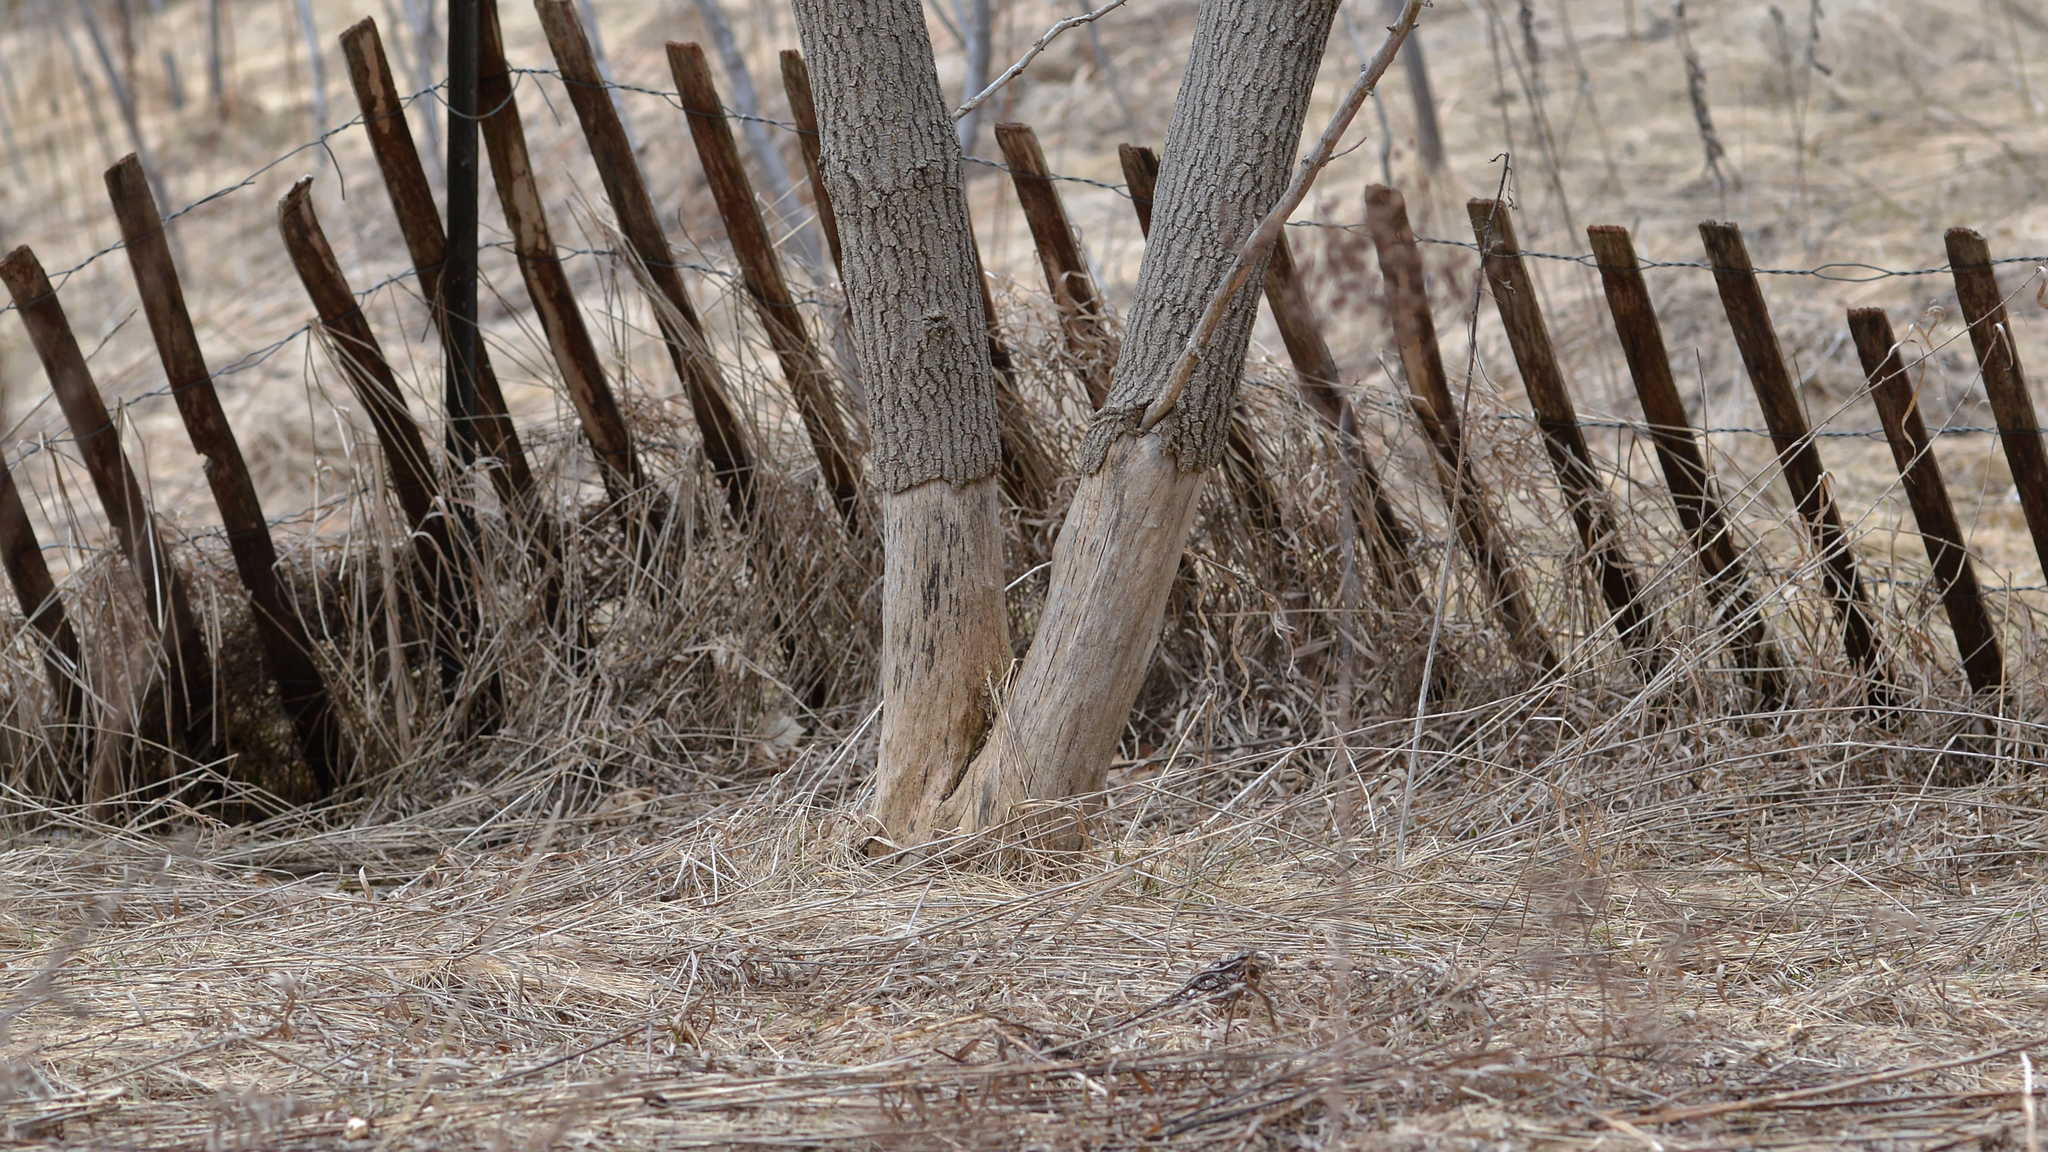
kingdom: Plantae
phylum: Tracheophyta
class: Magnoliopsida
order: Sapindales
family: Sapindaceae
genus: Acer
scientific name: Acer negundo
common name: Ashleaf maple
